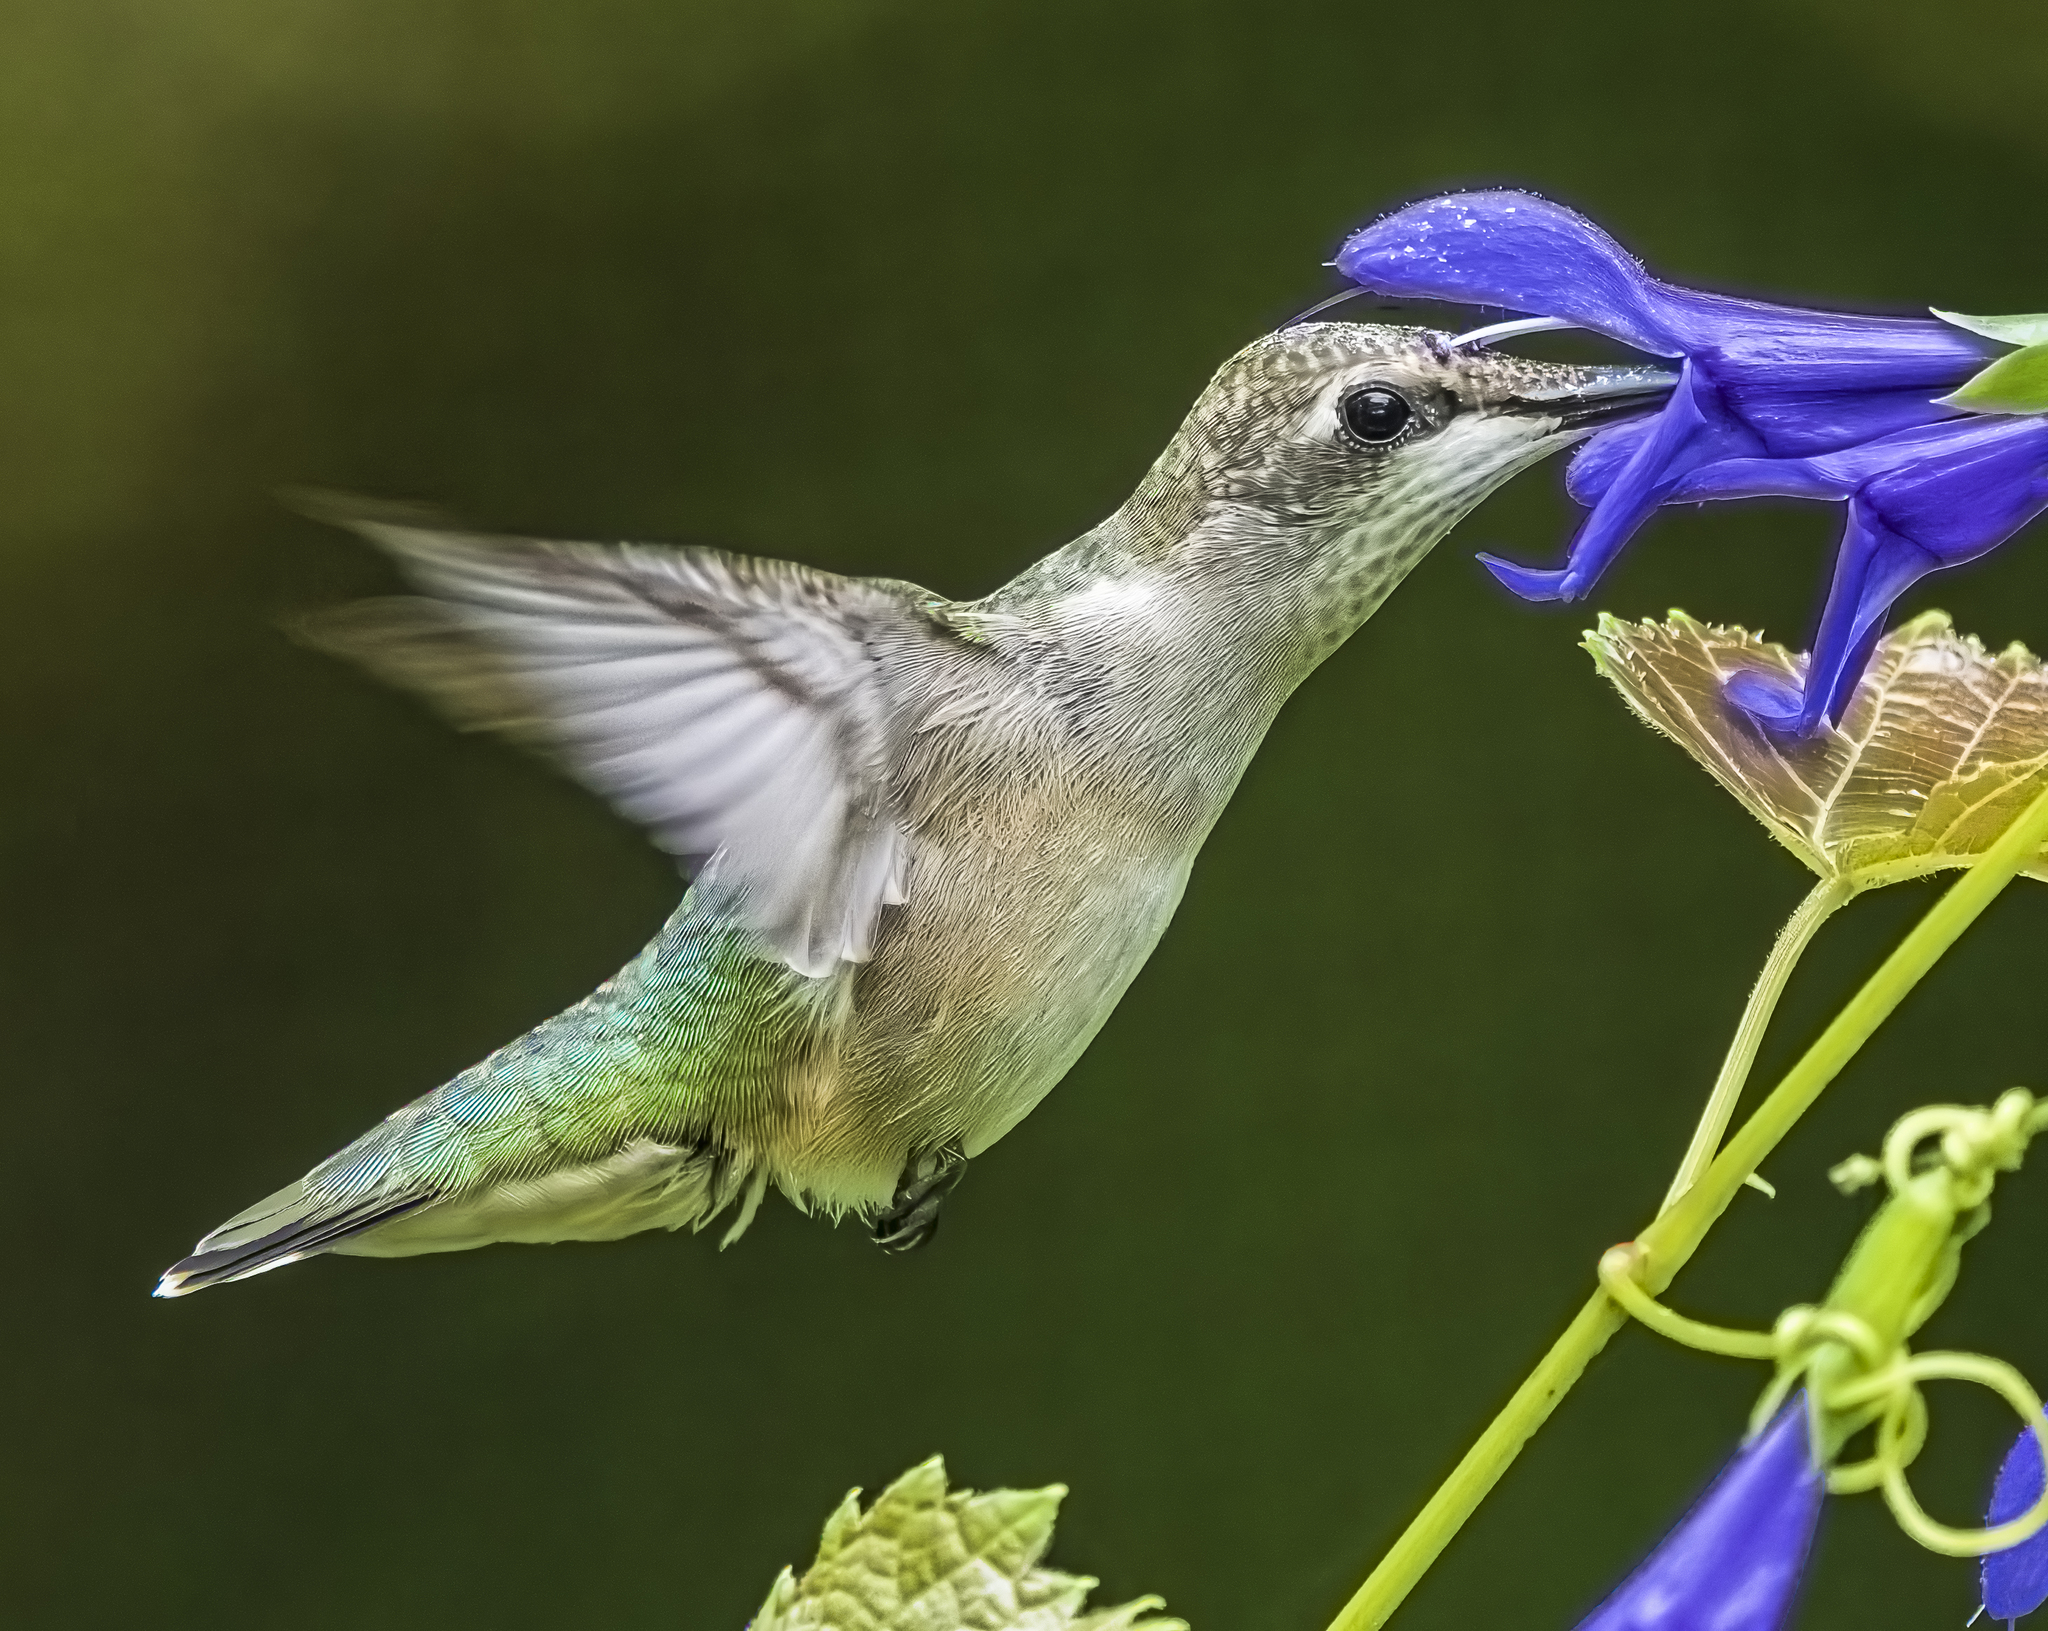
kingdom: Animalia
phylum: Chordata
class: Aves
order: Apodiformes
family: Trochilidae
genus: Archilochus
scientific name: Archilochus colubris
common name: Ruby-throated hummingbird
